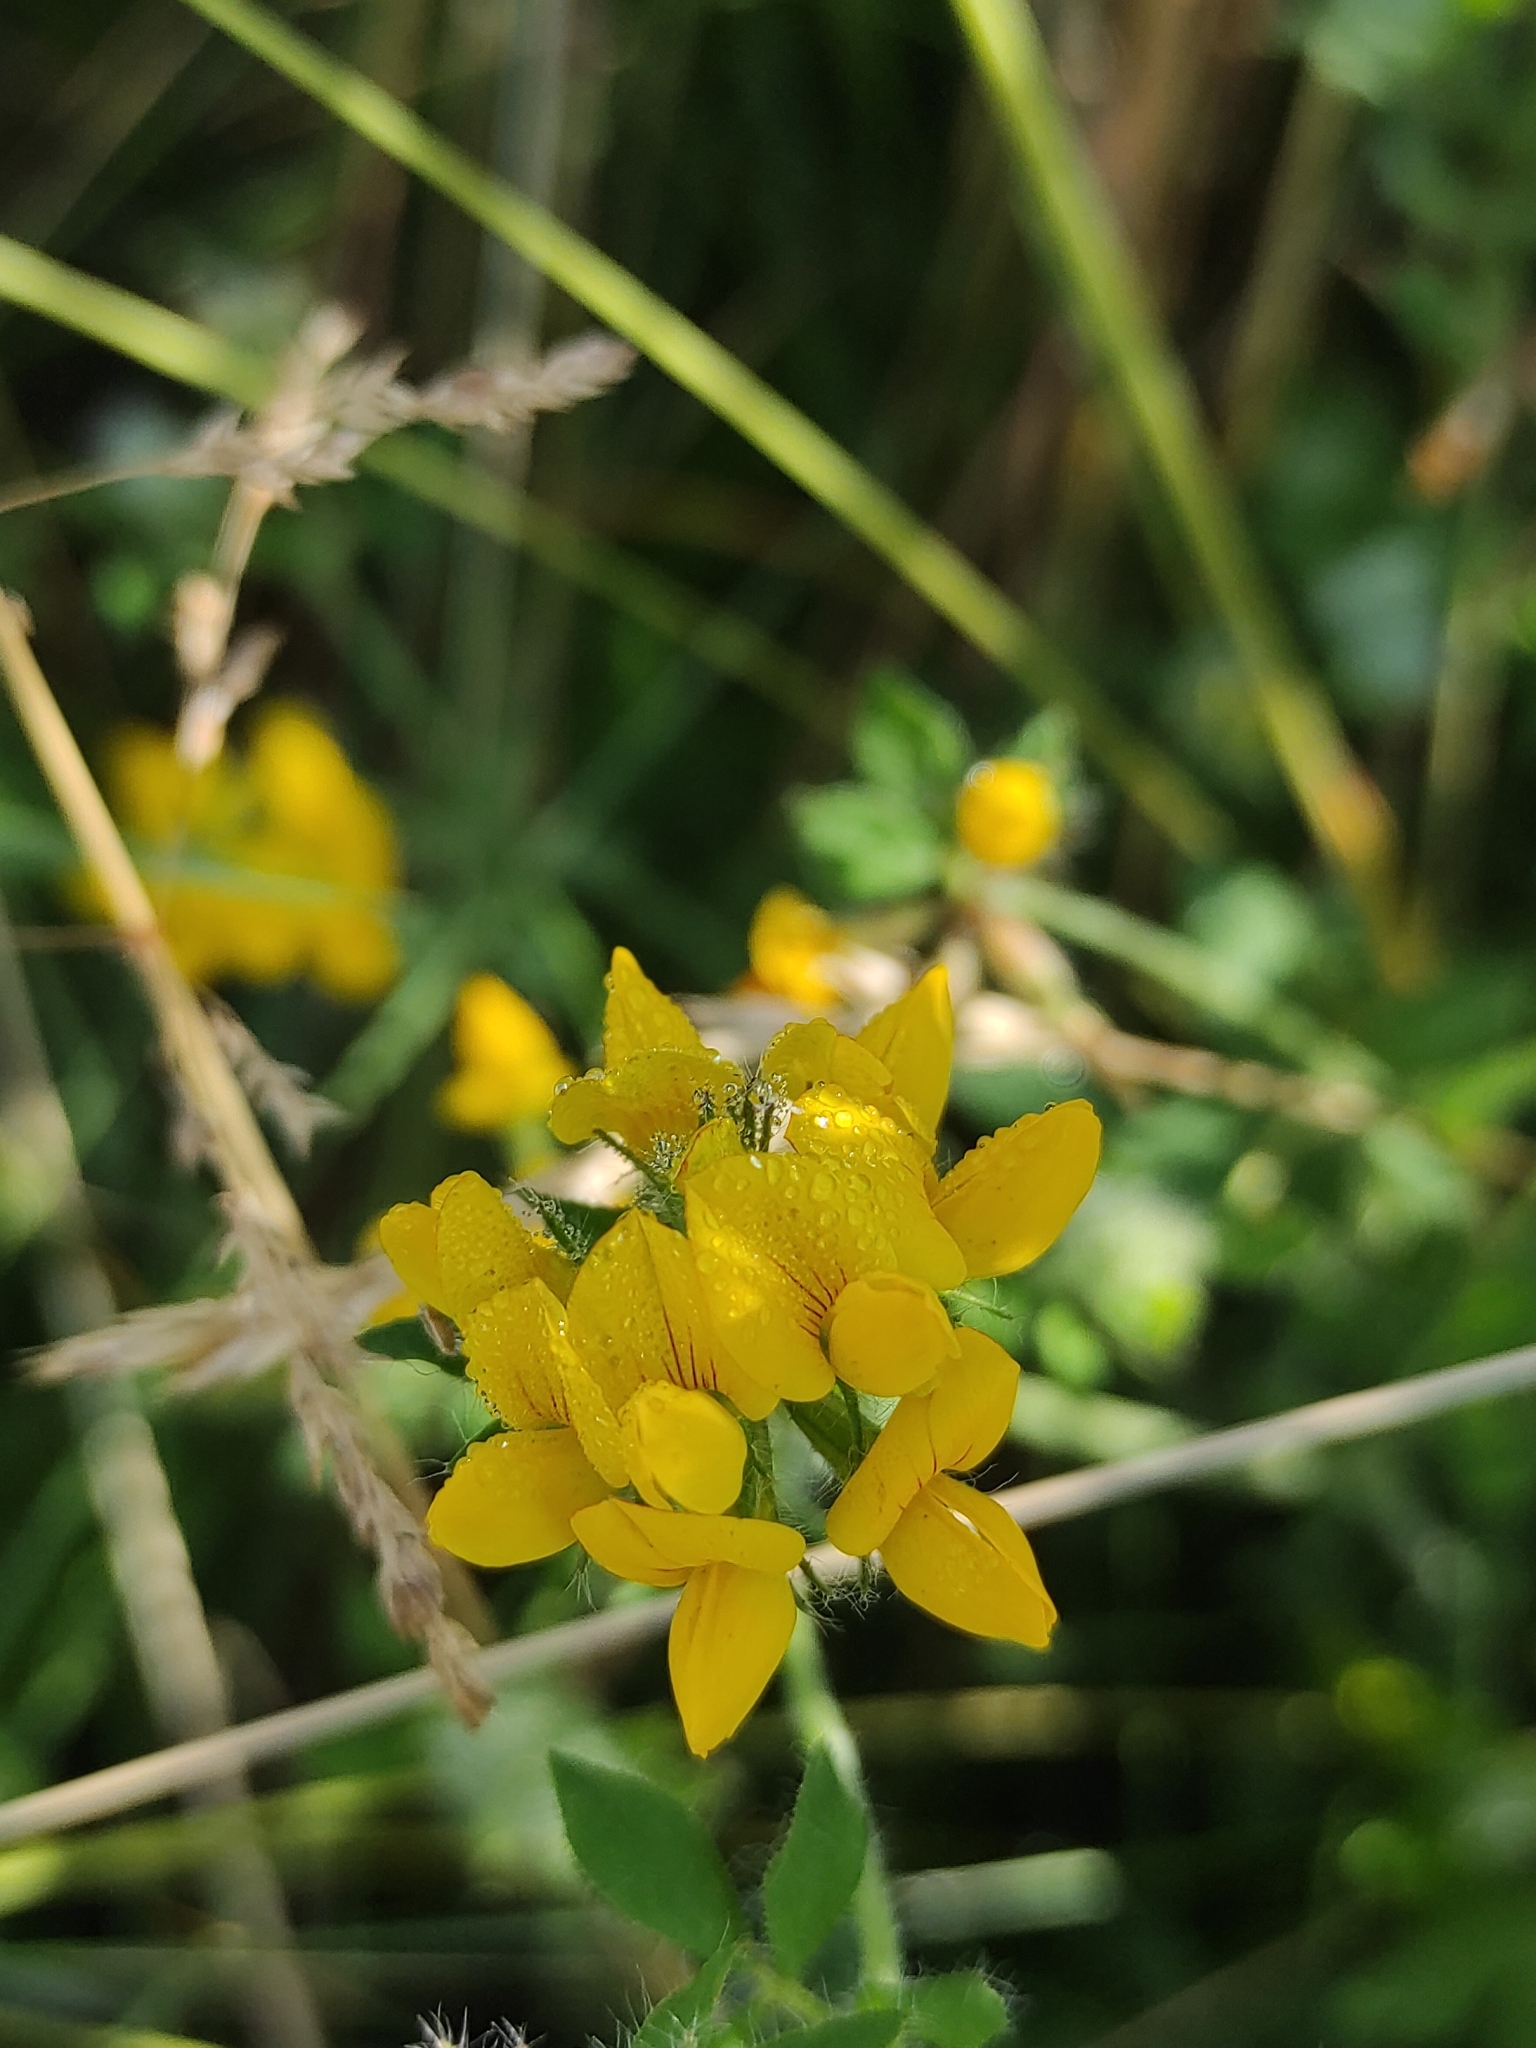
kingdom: Plantae
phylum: Tracheophyta
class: Magnoliopsida
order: Fabales
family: Fabaceae
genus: Lotus
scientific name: Lotus corniculatus
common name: Common bird's-foot-trefoil
